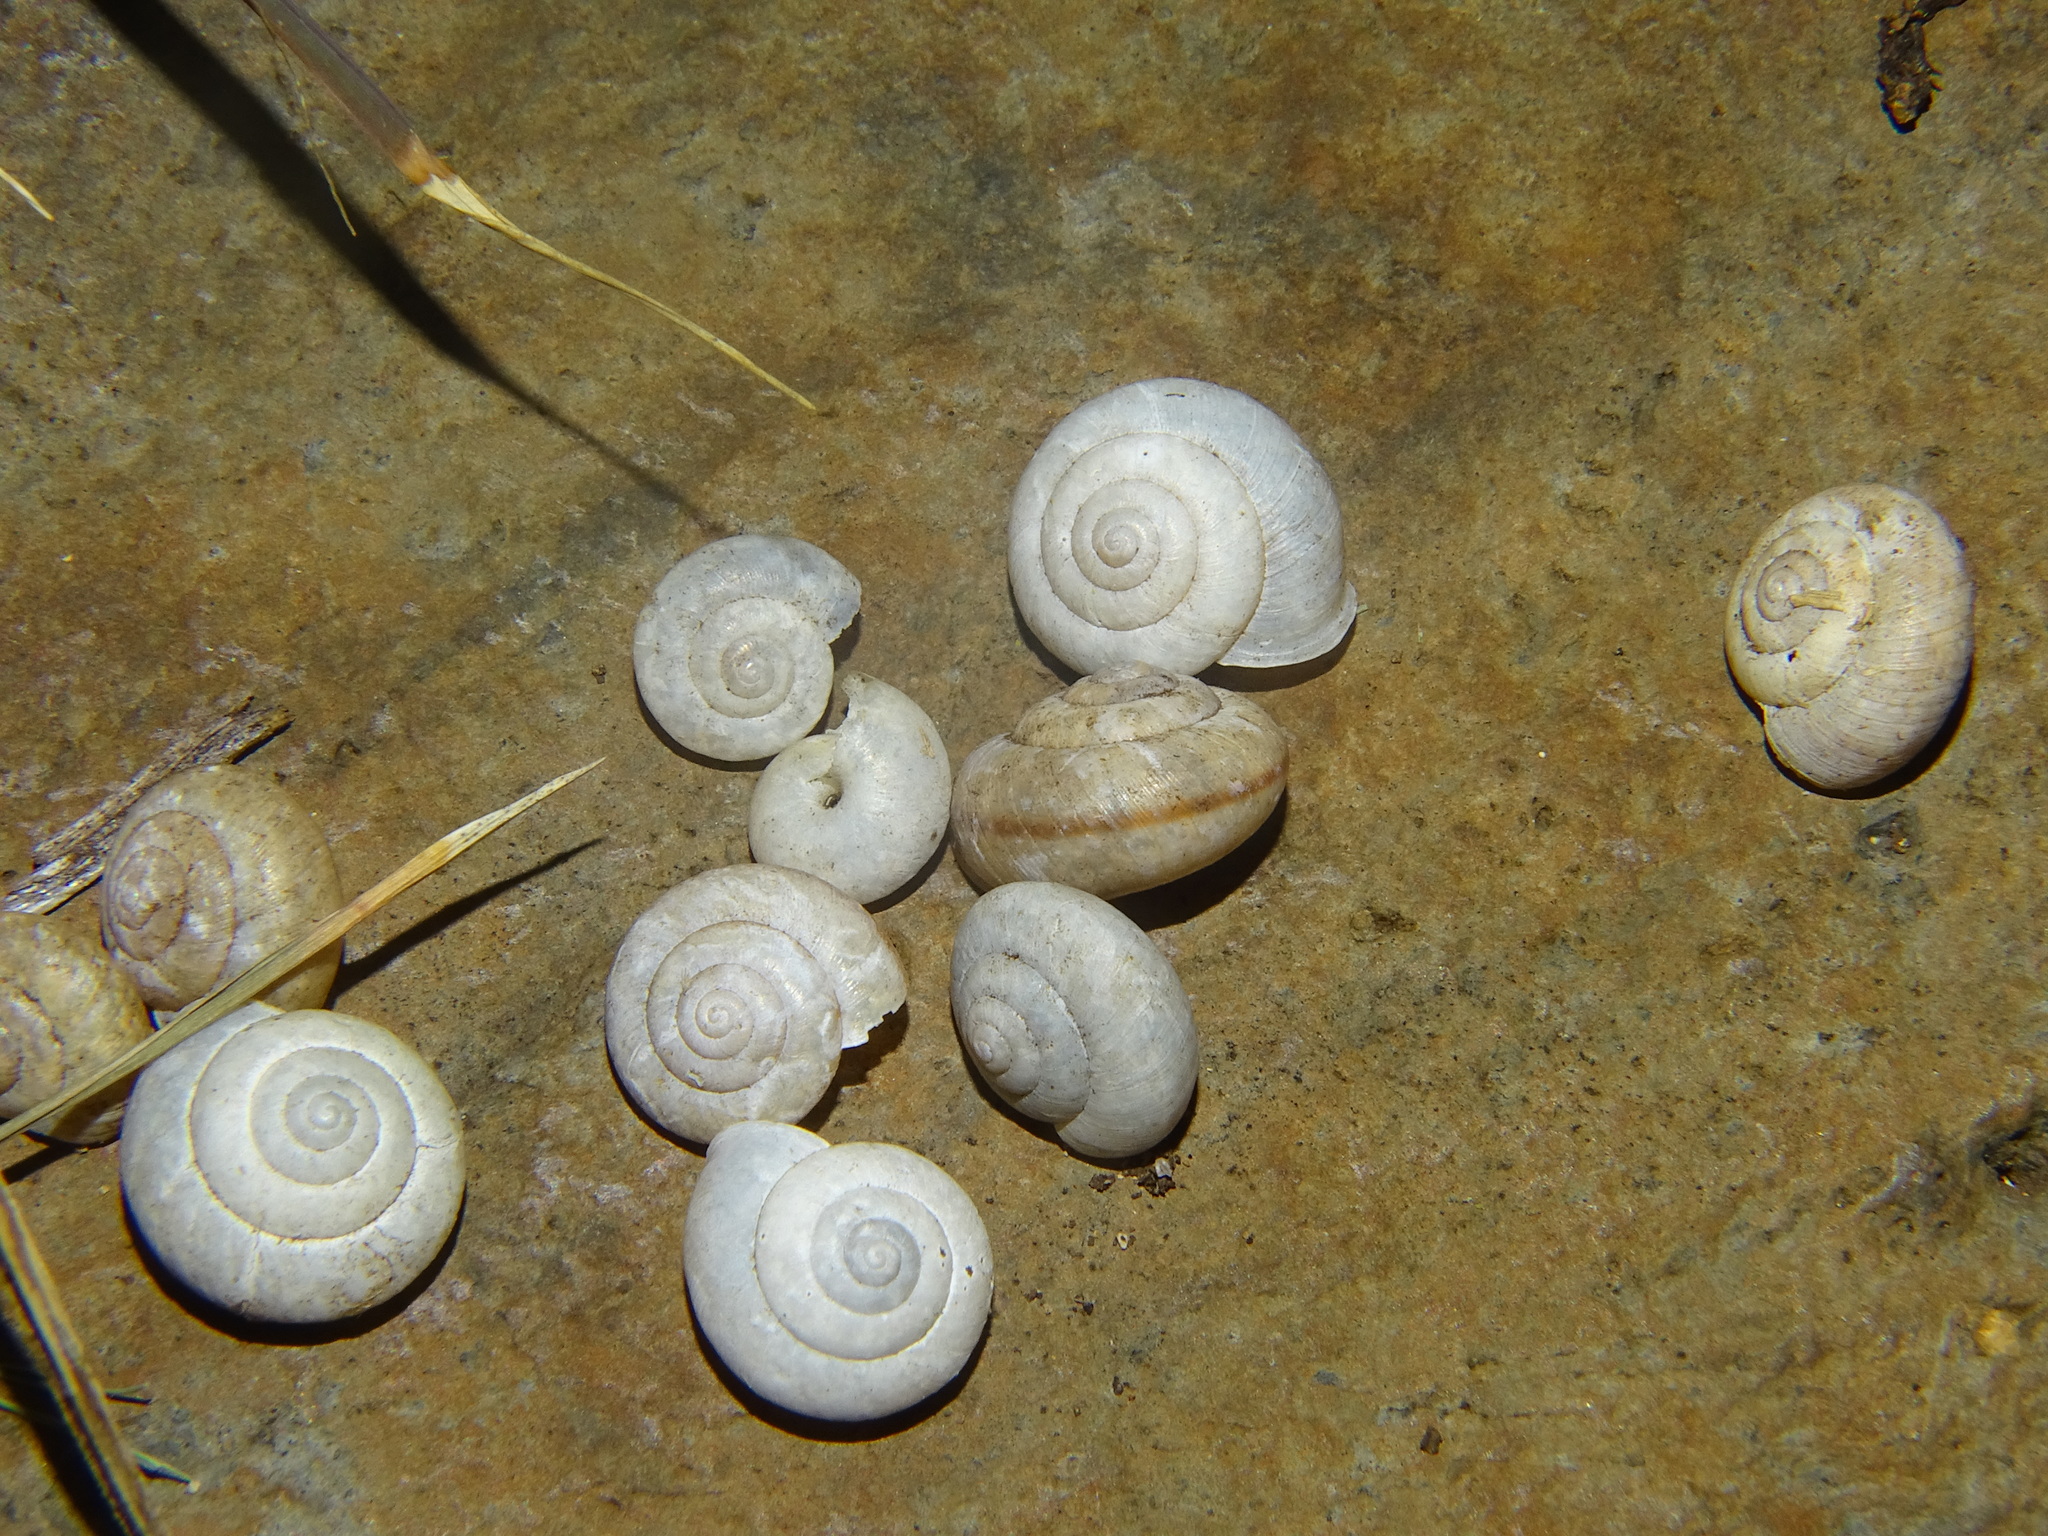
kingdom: Animalia
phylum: Mollusca
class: Gastropoda
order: Stylommatophora
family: Camaenidae
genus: Bradybaena
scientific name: Bradybaena similaris
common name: Asian trampsnail
